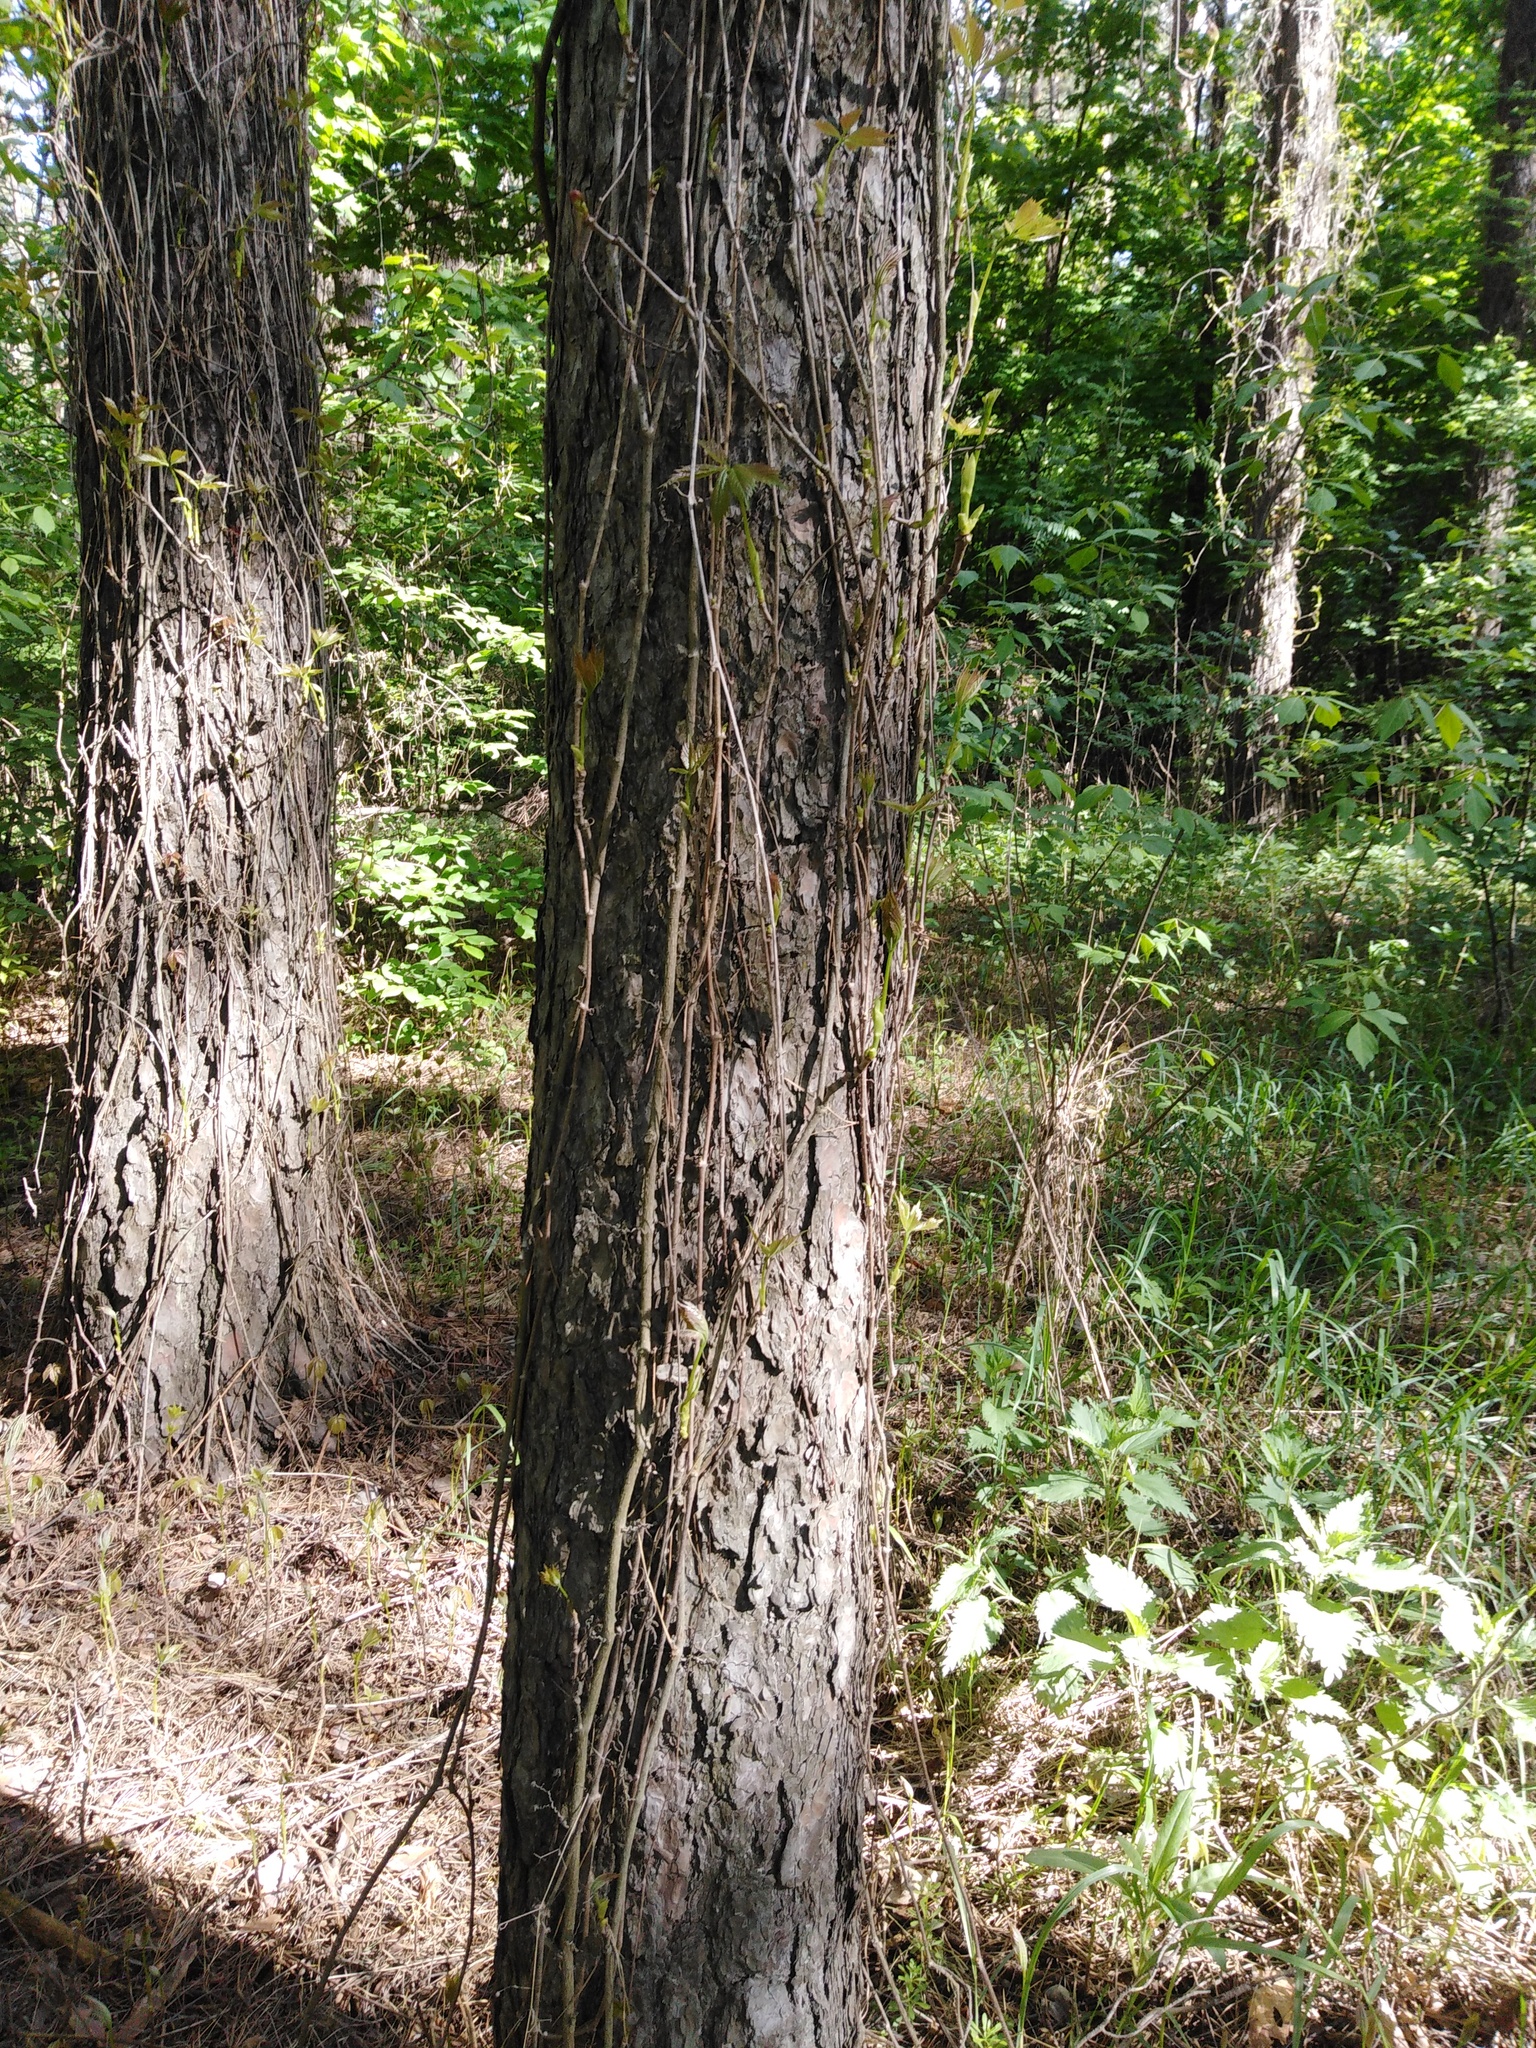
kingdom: Plantae
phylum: Tracheophyta
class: Magnoliopsida
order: Vitales
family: Vitaceae
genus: Parthenocissus
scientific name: Parthenocissus inserta
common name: False virginia-creeper
